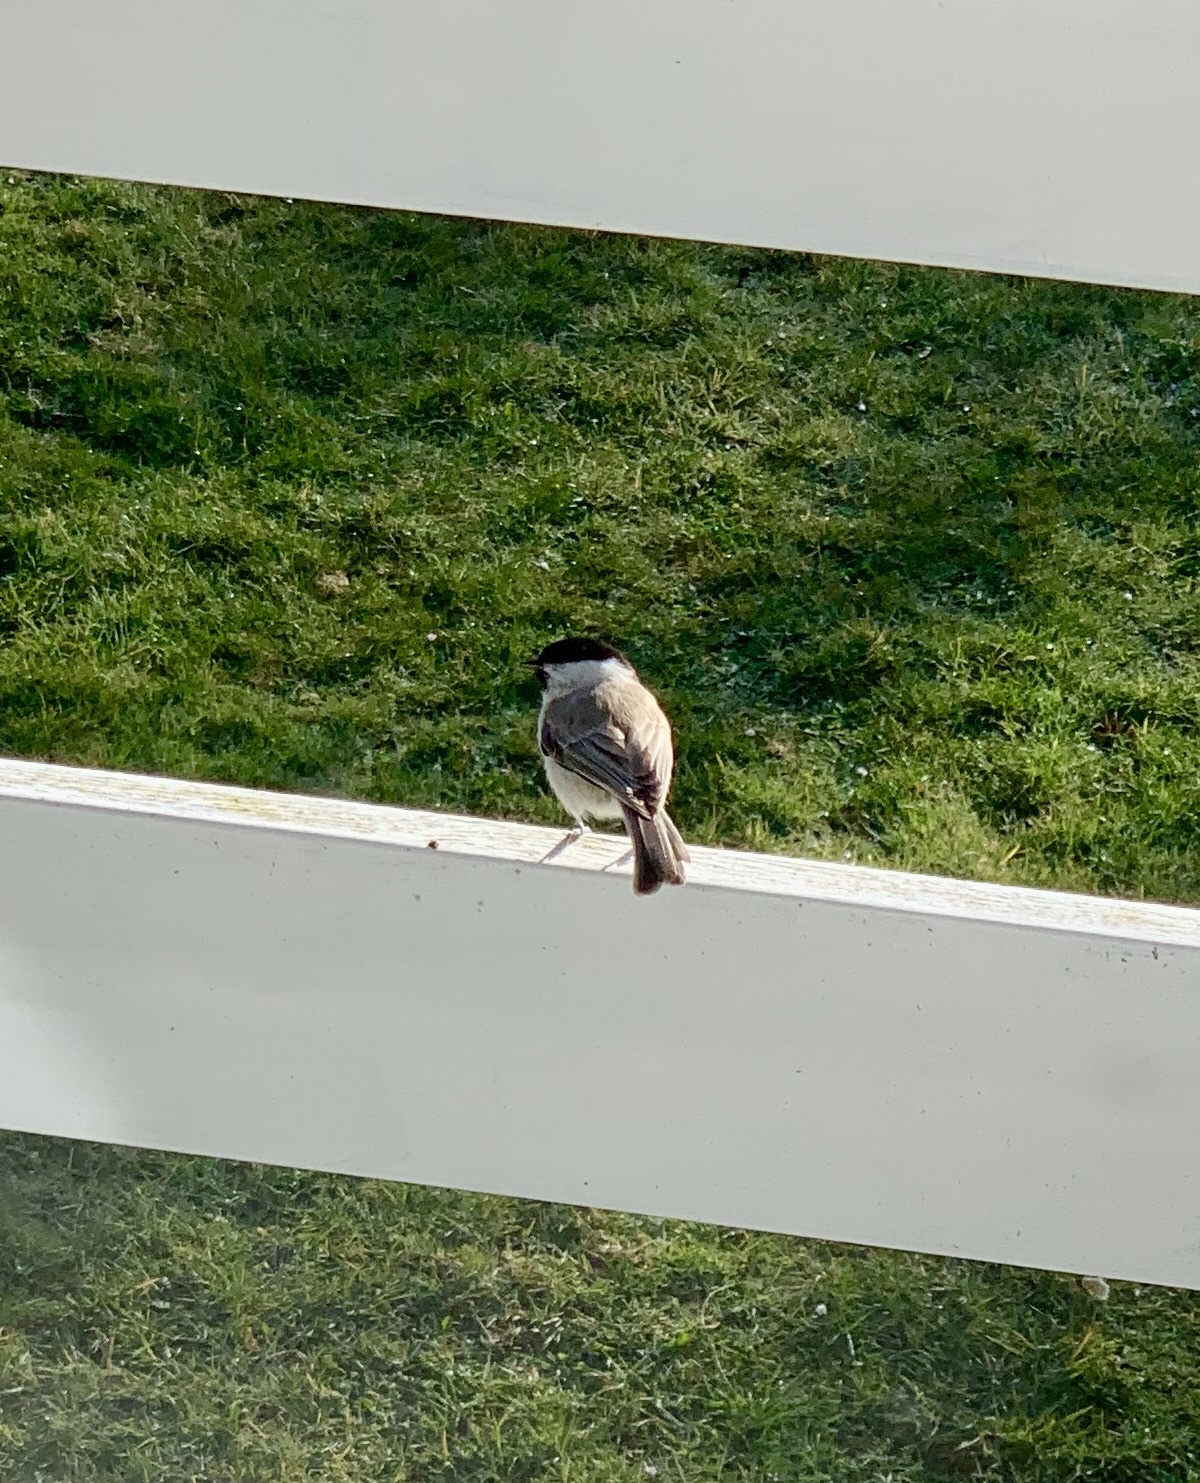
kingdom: Animalia
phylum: Chordata
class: Aves
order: Passeriformes
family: Paridae
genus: Poecile
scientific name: Poecile palustris
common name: Marsh tit
